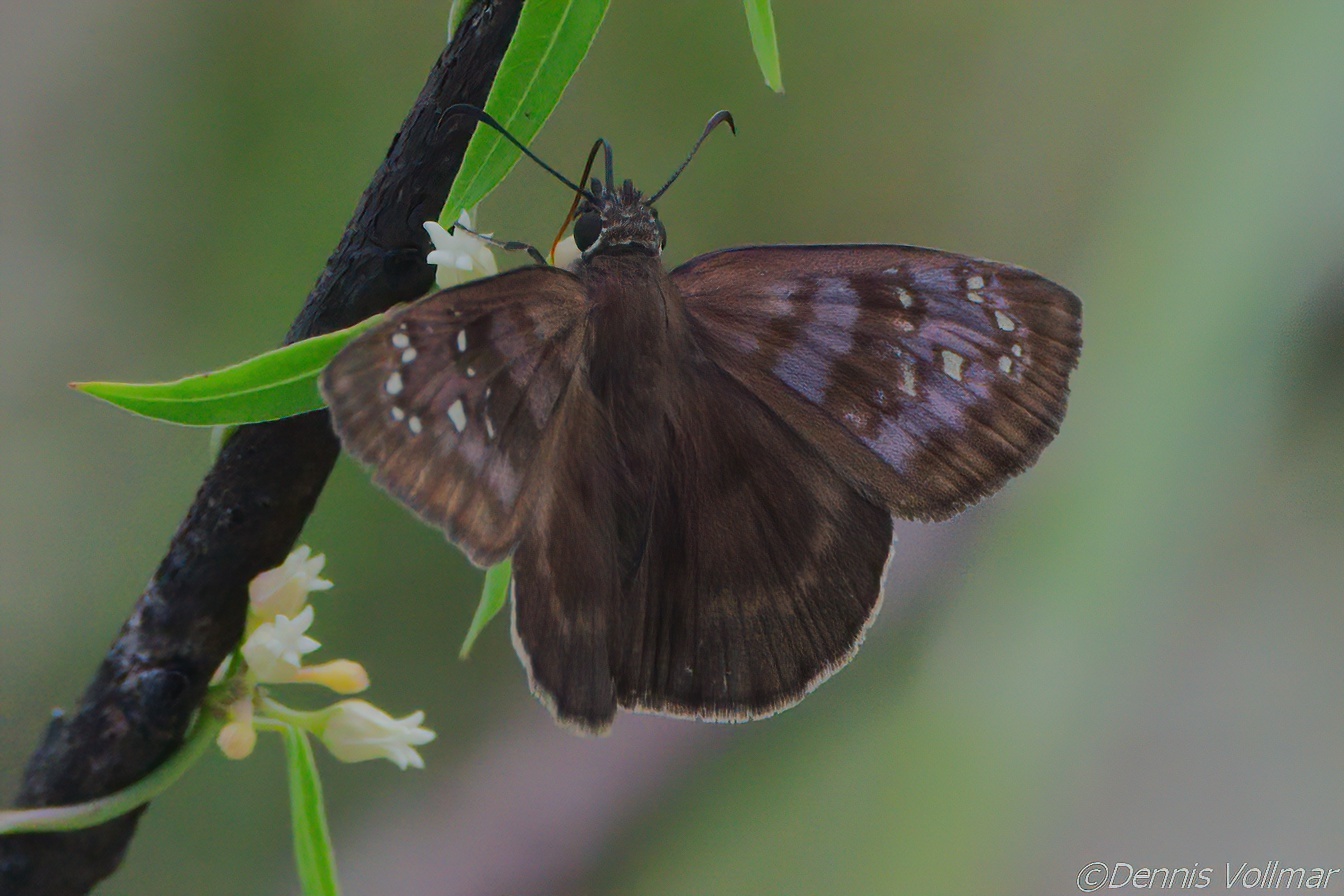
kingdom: Animalia
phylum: Arthropoda
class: Insecta
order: Lepidoptera
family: Hesperiidae
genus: Ephyriades
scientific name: Ephyriades brunnea
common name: Florida duskywing
